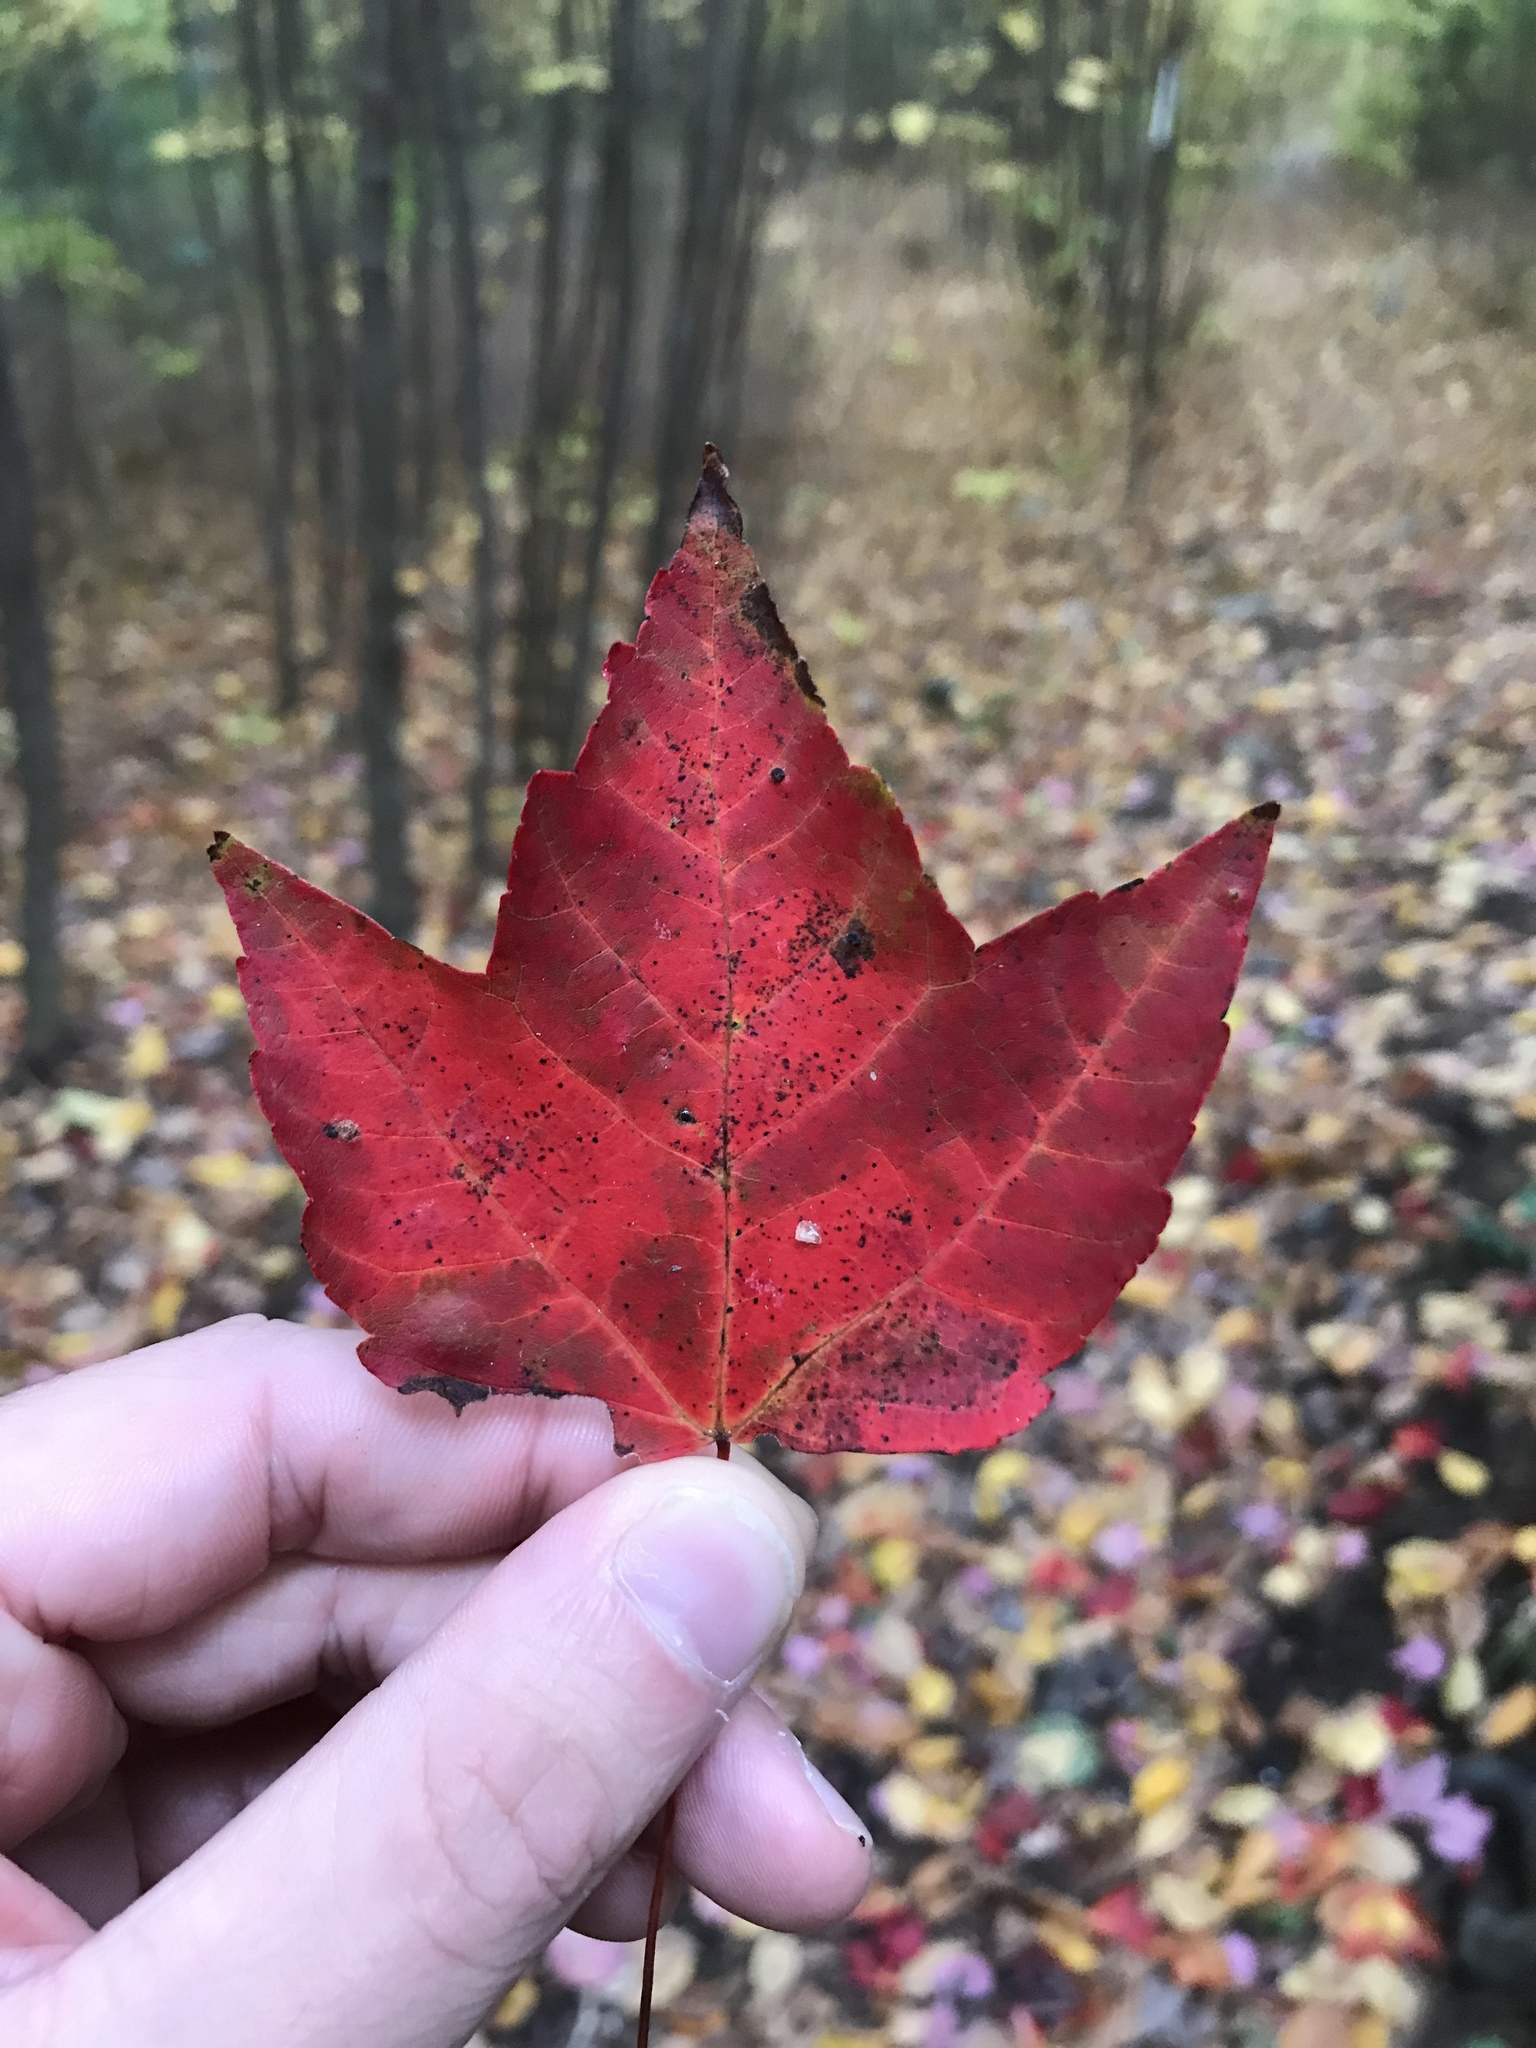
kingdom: Plantae
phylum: Tracheophyta
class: Magnoliopsida
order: Sapindales
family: Sapindaceae
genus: Acer
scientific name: Acer rubrum
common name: Red maple
